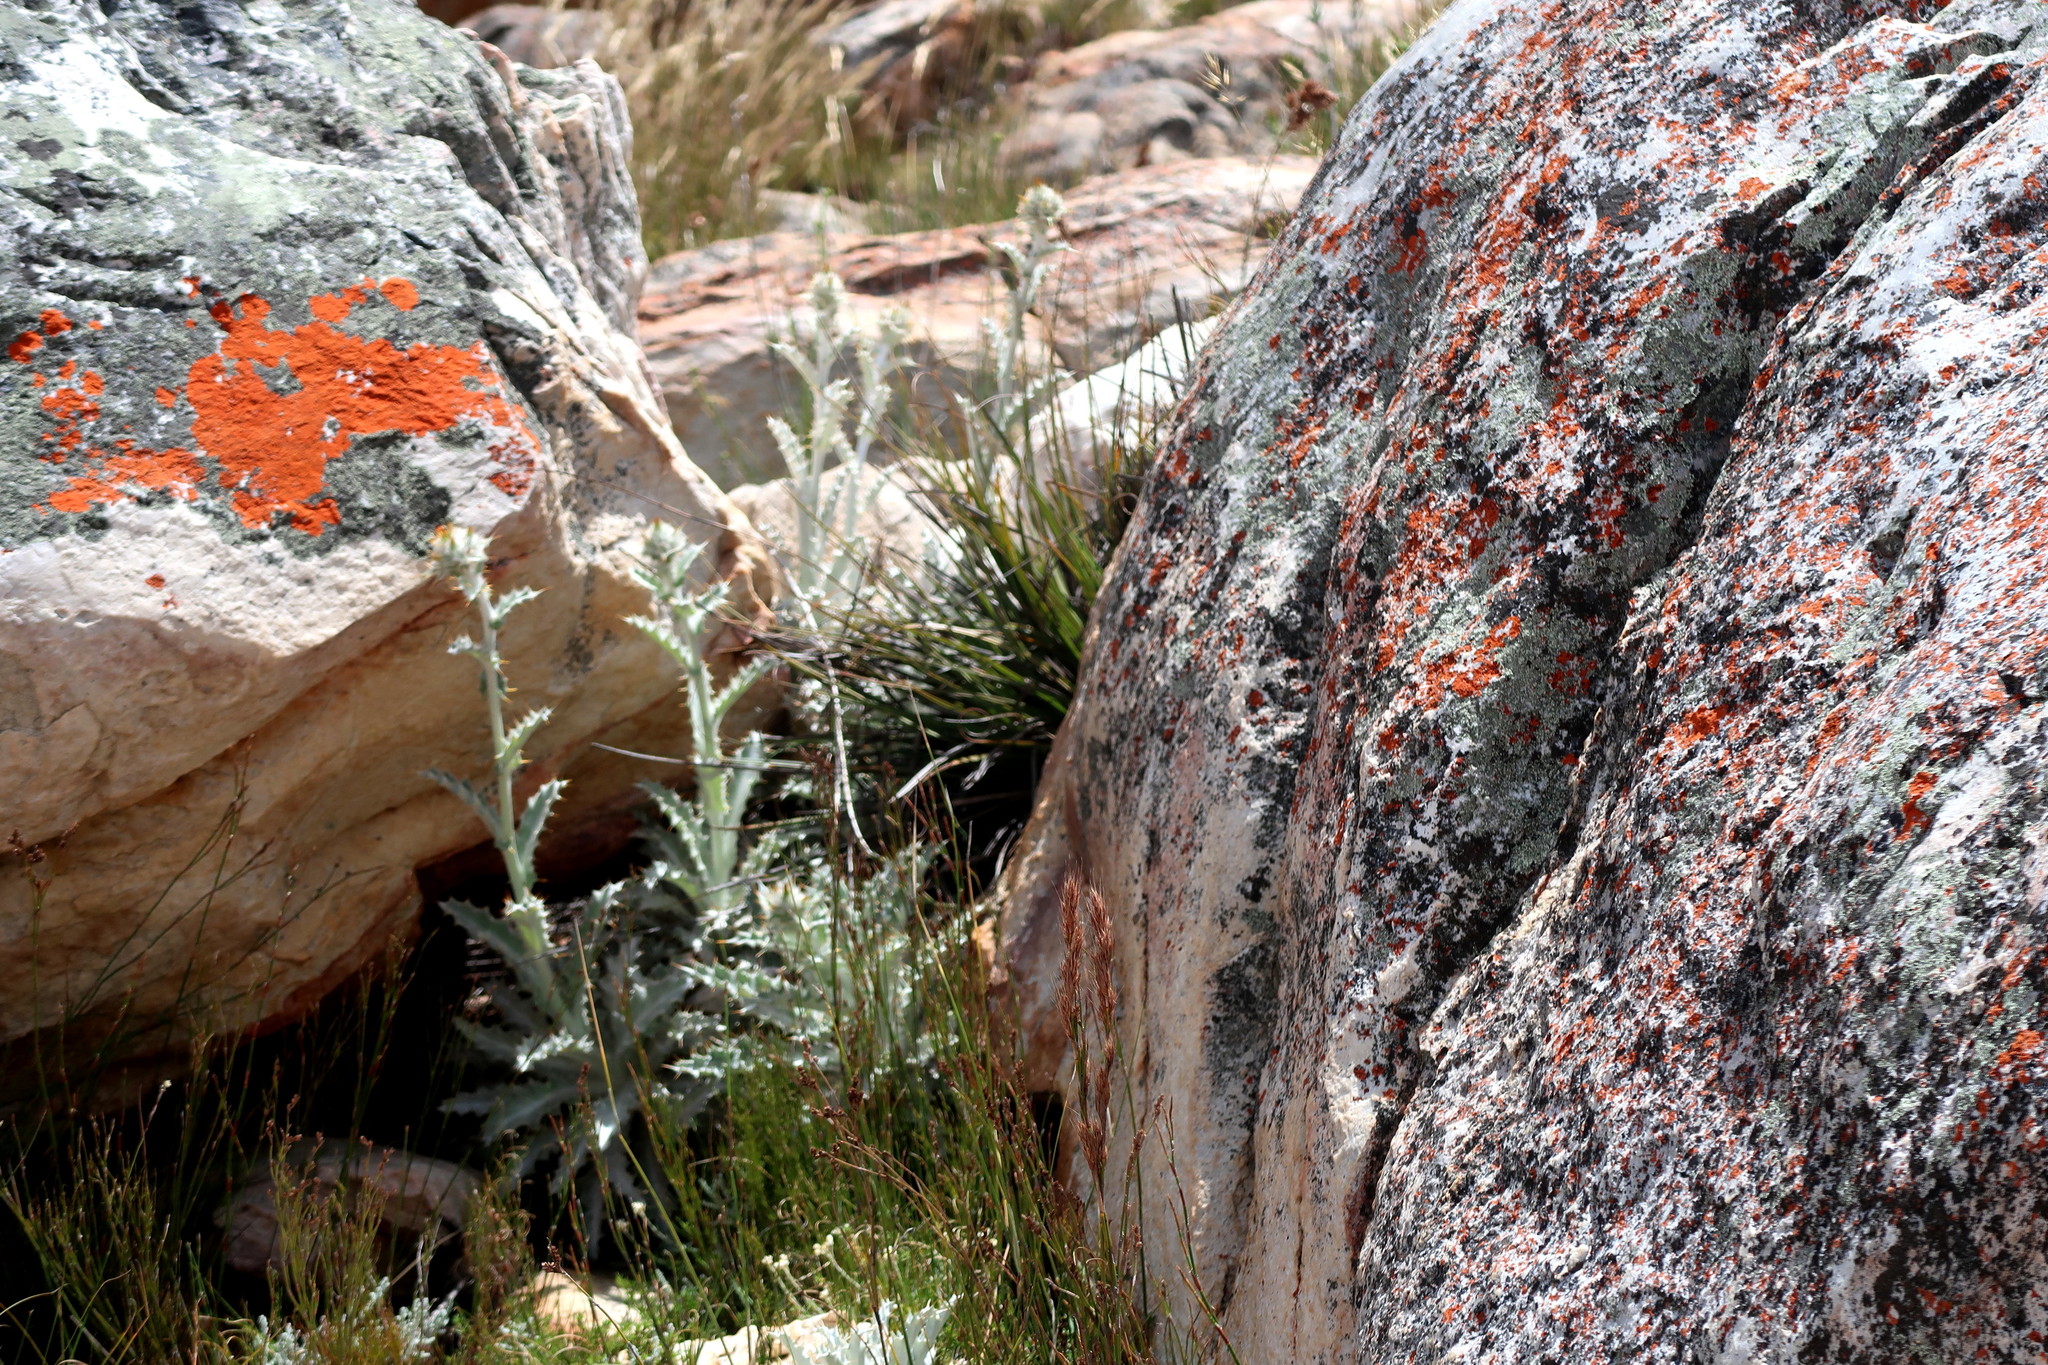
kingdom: Plantae
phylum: Tracheophyta
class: Magnoliopsida
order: Asterales
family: Asteraceae
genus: Berkheya
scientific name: Berkheya francisci
